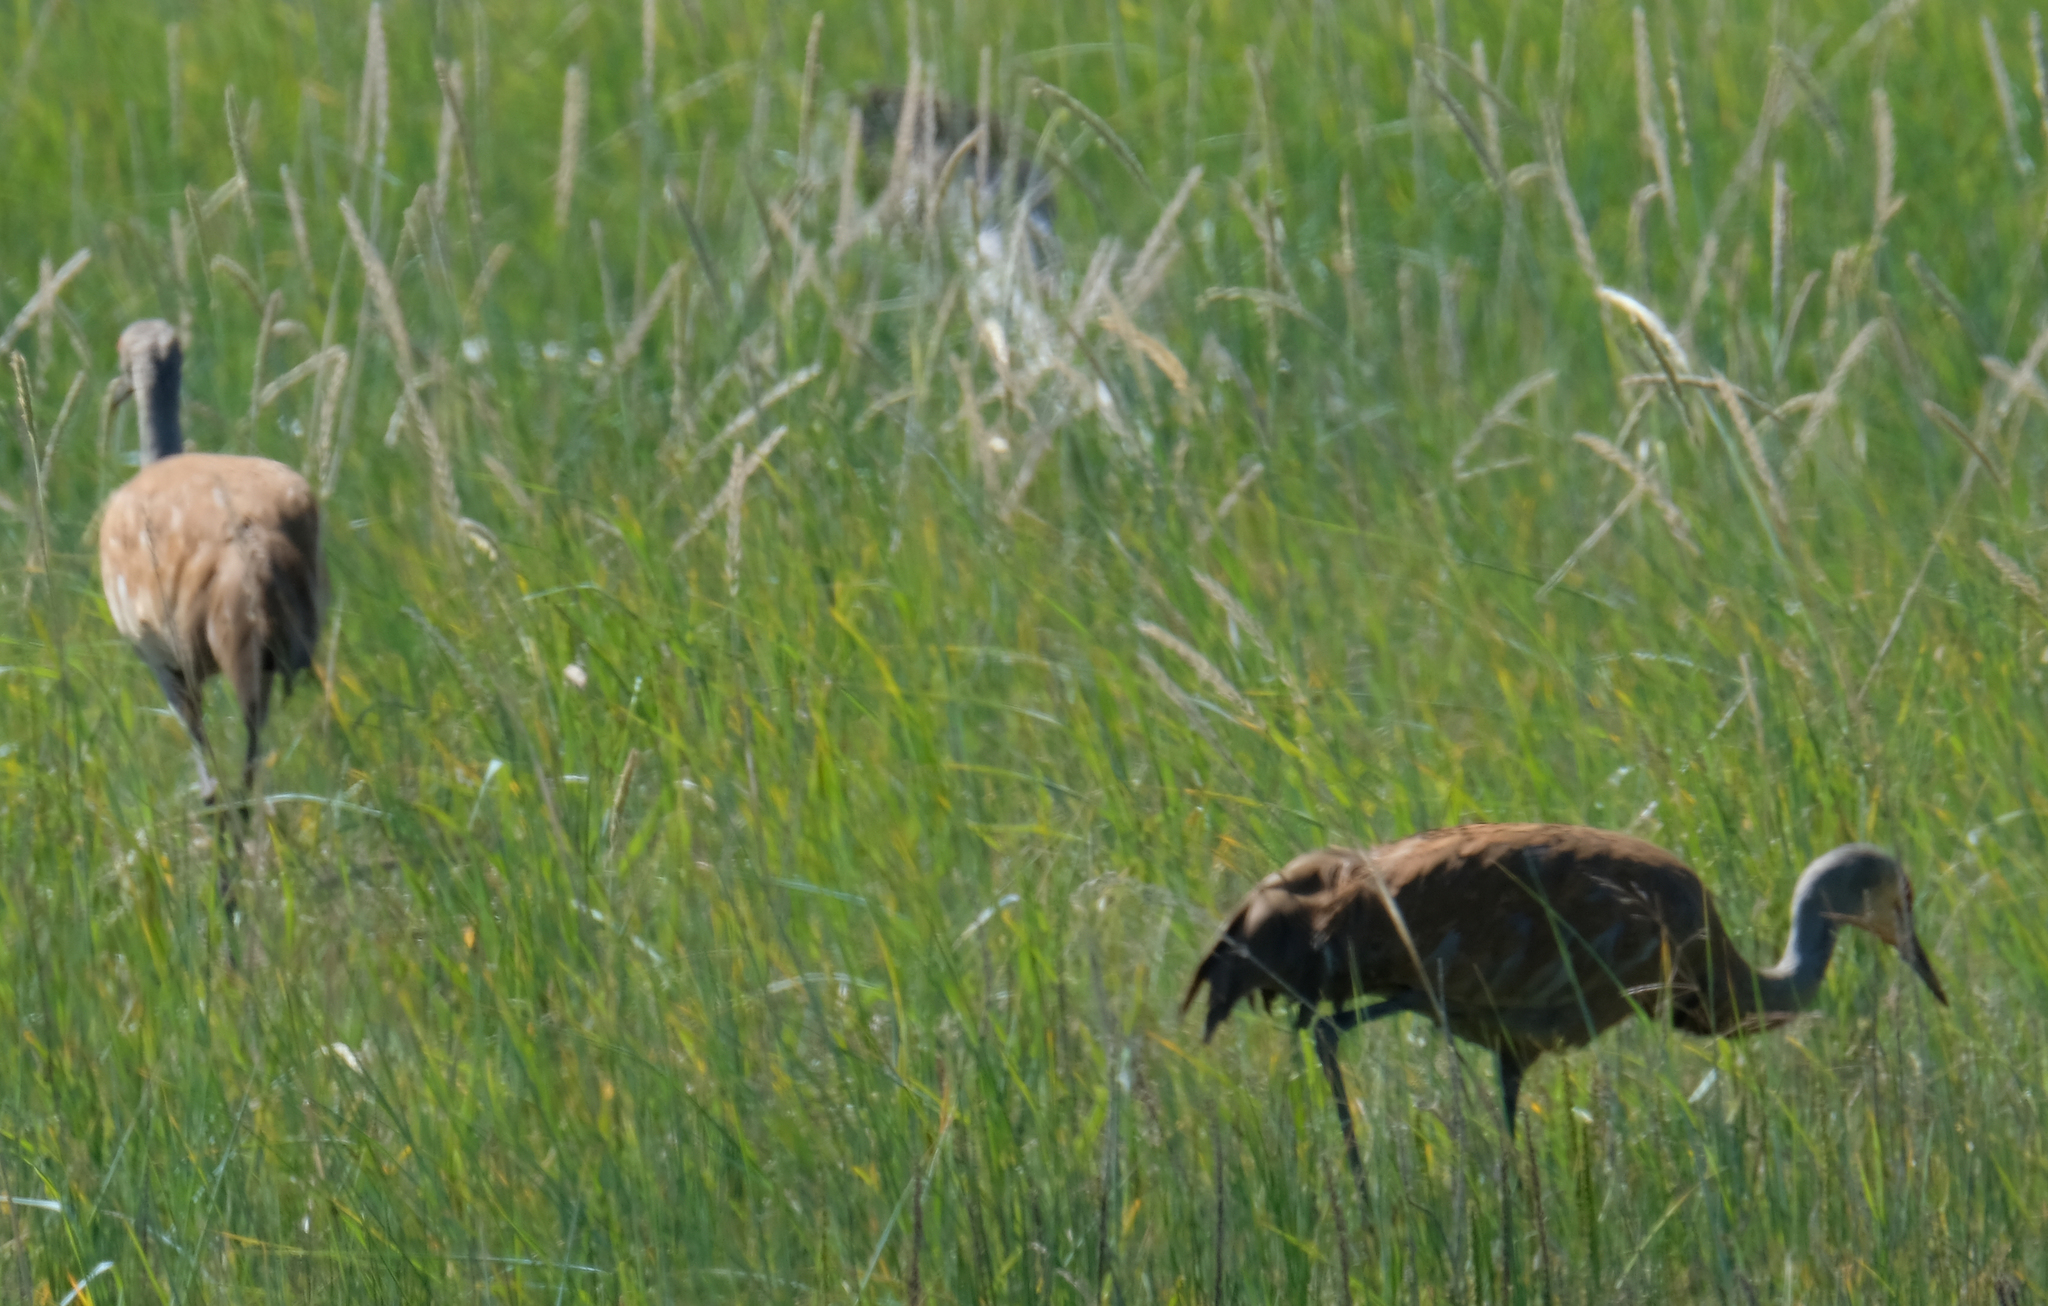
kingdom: Animalia
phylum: Chordata
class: Aves
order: Gruiformes
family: Gruidae
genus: Grus
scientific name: Grus canadensis
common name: Sandhill crane
